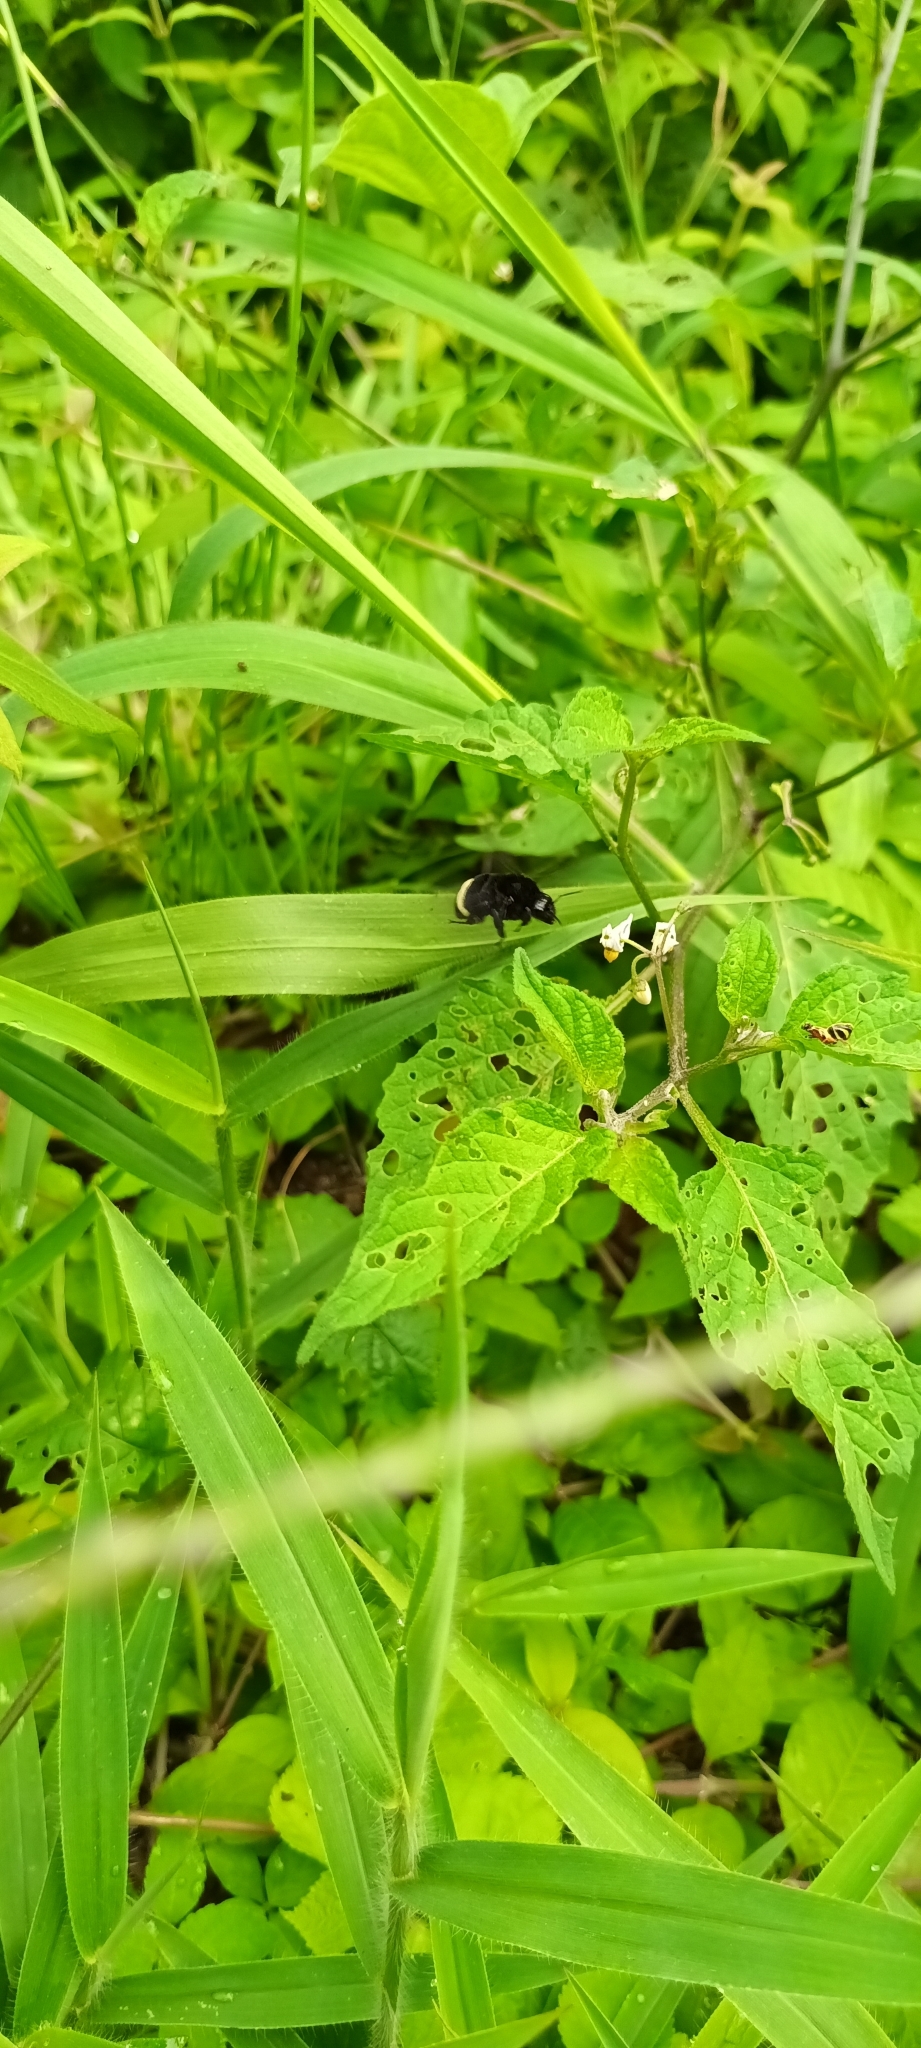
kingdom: Animalia
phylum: Arthropoda
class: Insecta
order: Hymenoptera
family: Apidae
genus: Bombus
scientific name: Bombus mexicanus
